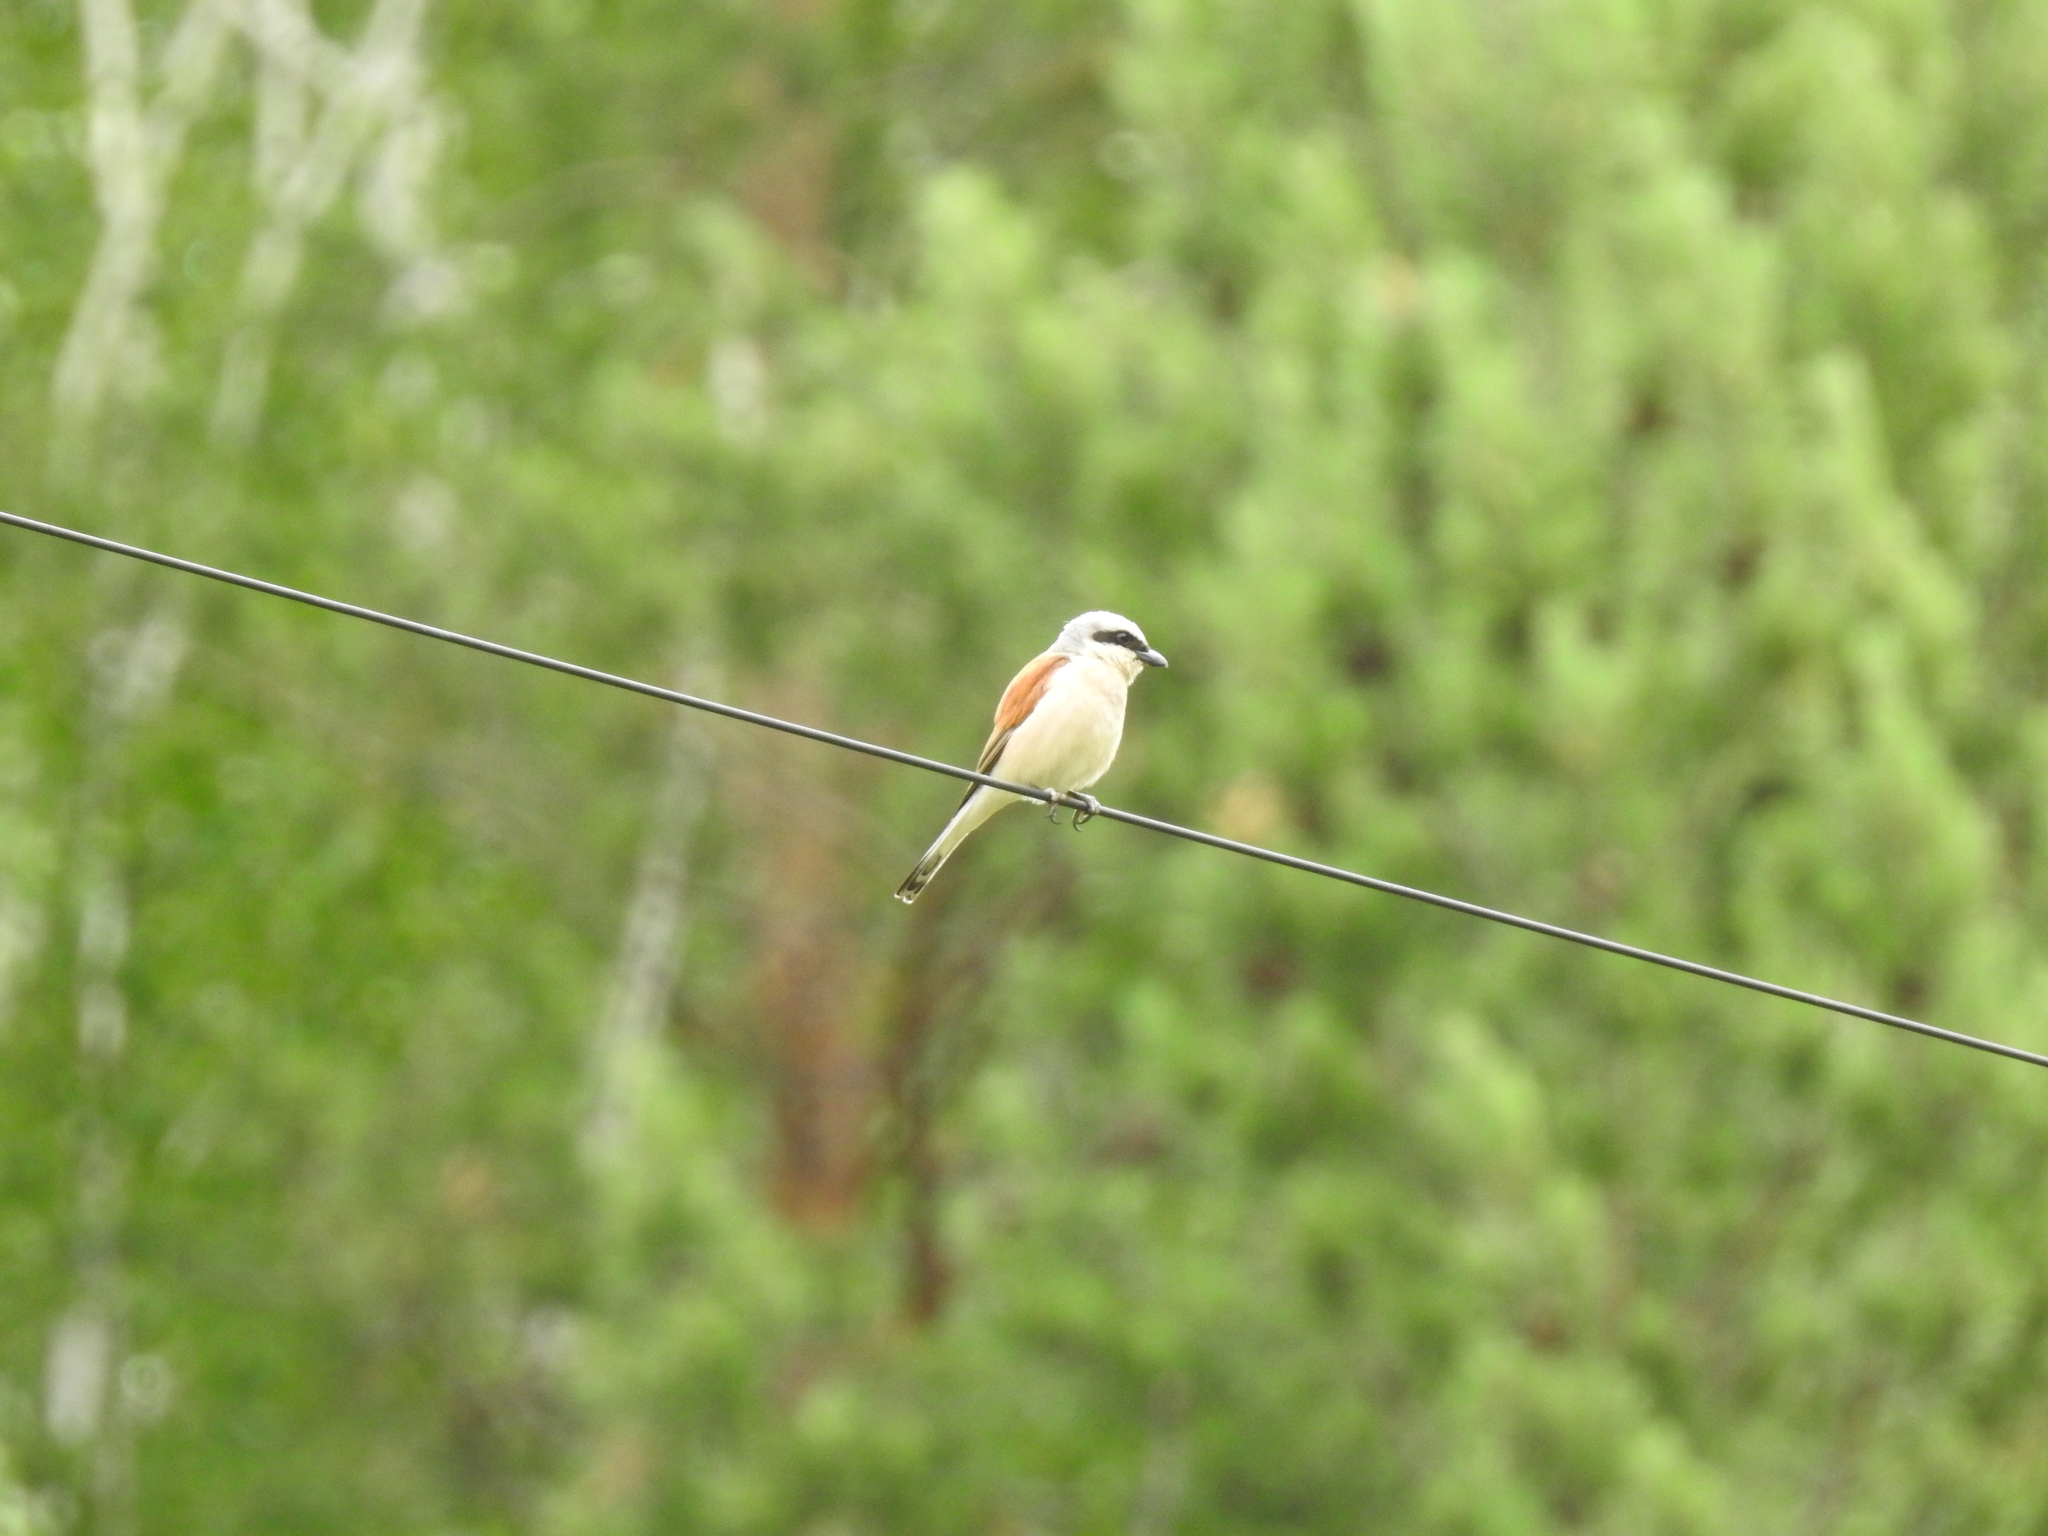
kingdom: Animalia
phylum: Chordata
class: Aves
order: Passeriformes
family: Laniidae
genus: Lanius
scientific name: Lanius collurio
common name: Red-backed shrike
